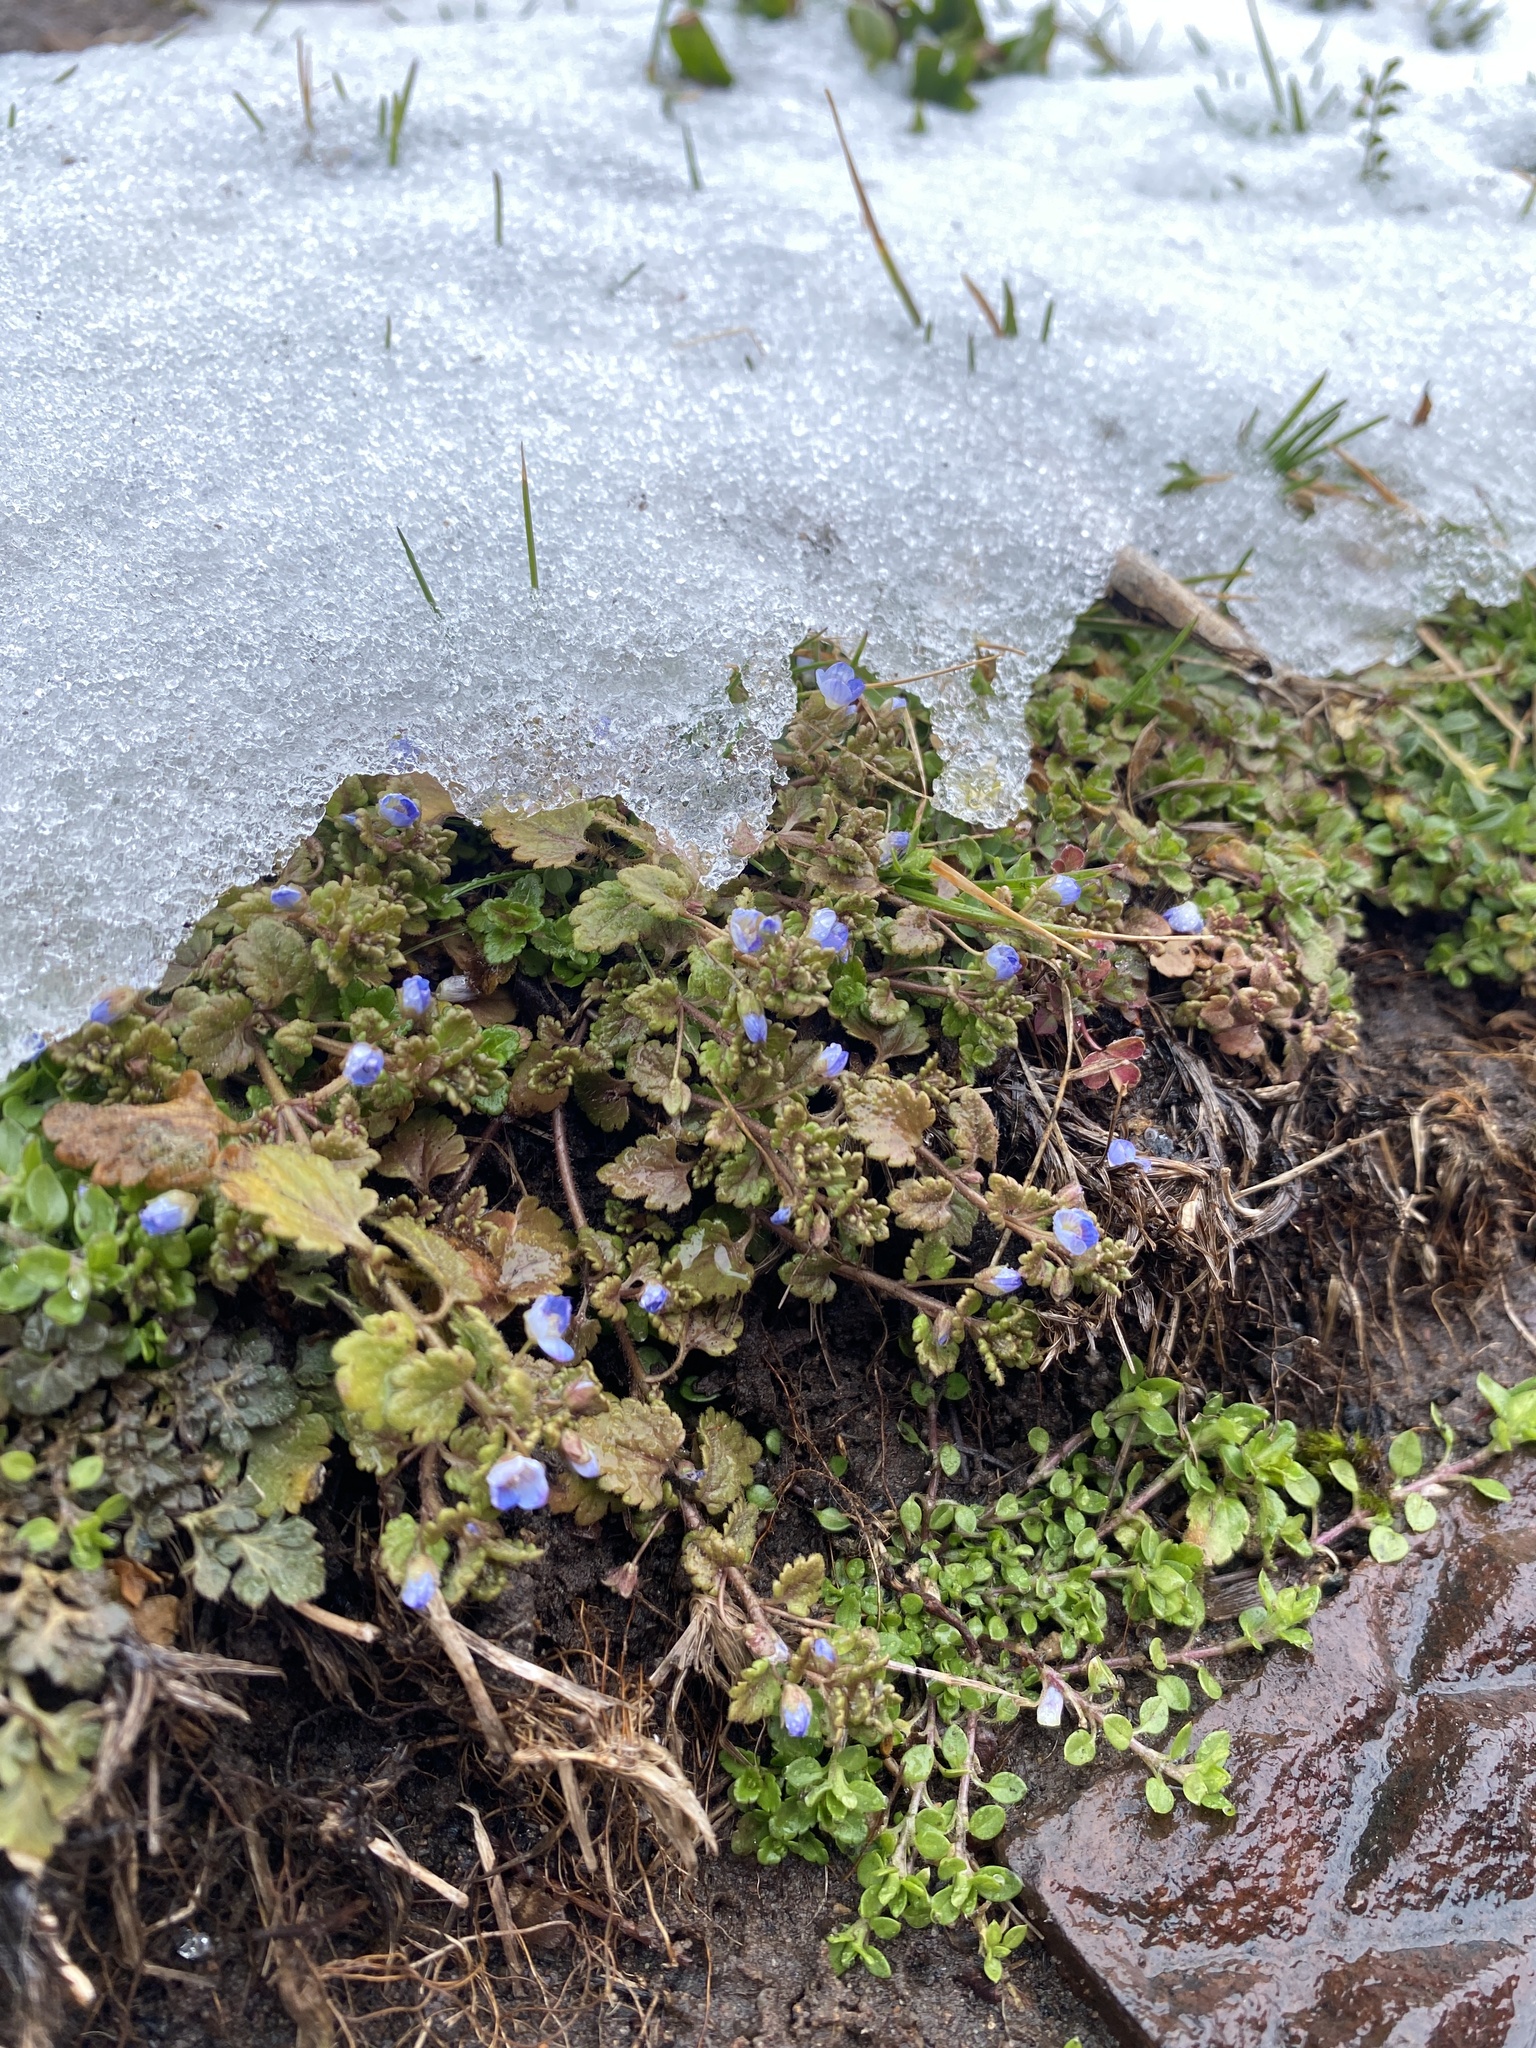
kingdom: Plantae
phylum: Tracheophyta
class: Magnoliopsida
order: Lamiales
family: Plantaginaceae
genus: Veronica
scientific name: Veronica polita
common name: Grey field-speedwell
